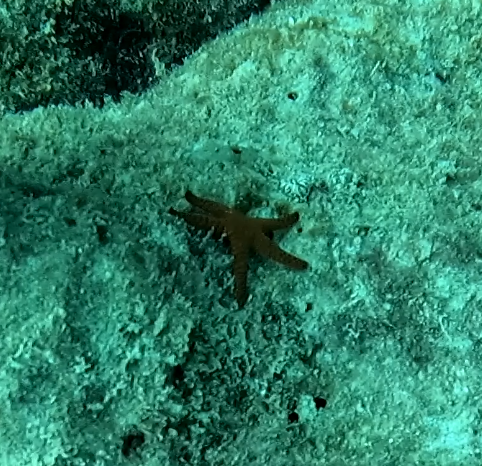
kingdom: Animalia
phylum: Echinodermata
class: Asteroidea
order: Valvatida
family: Goniasteridae
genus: Fromia
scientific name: Fromia indica
